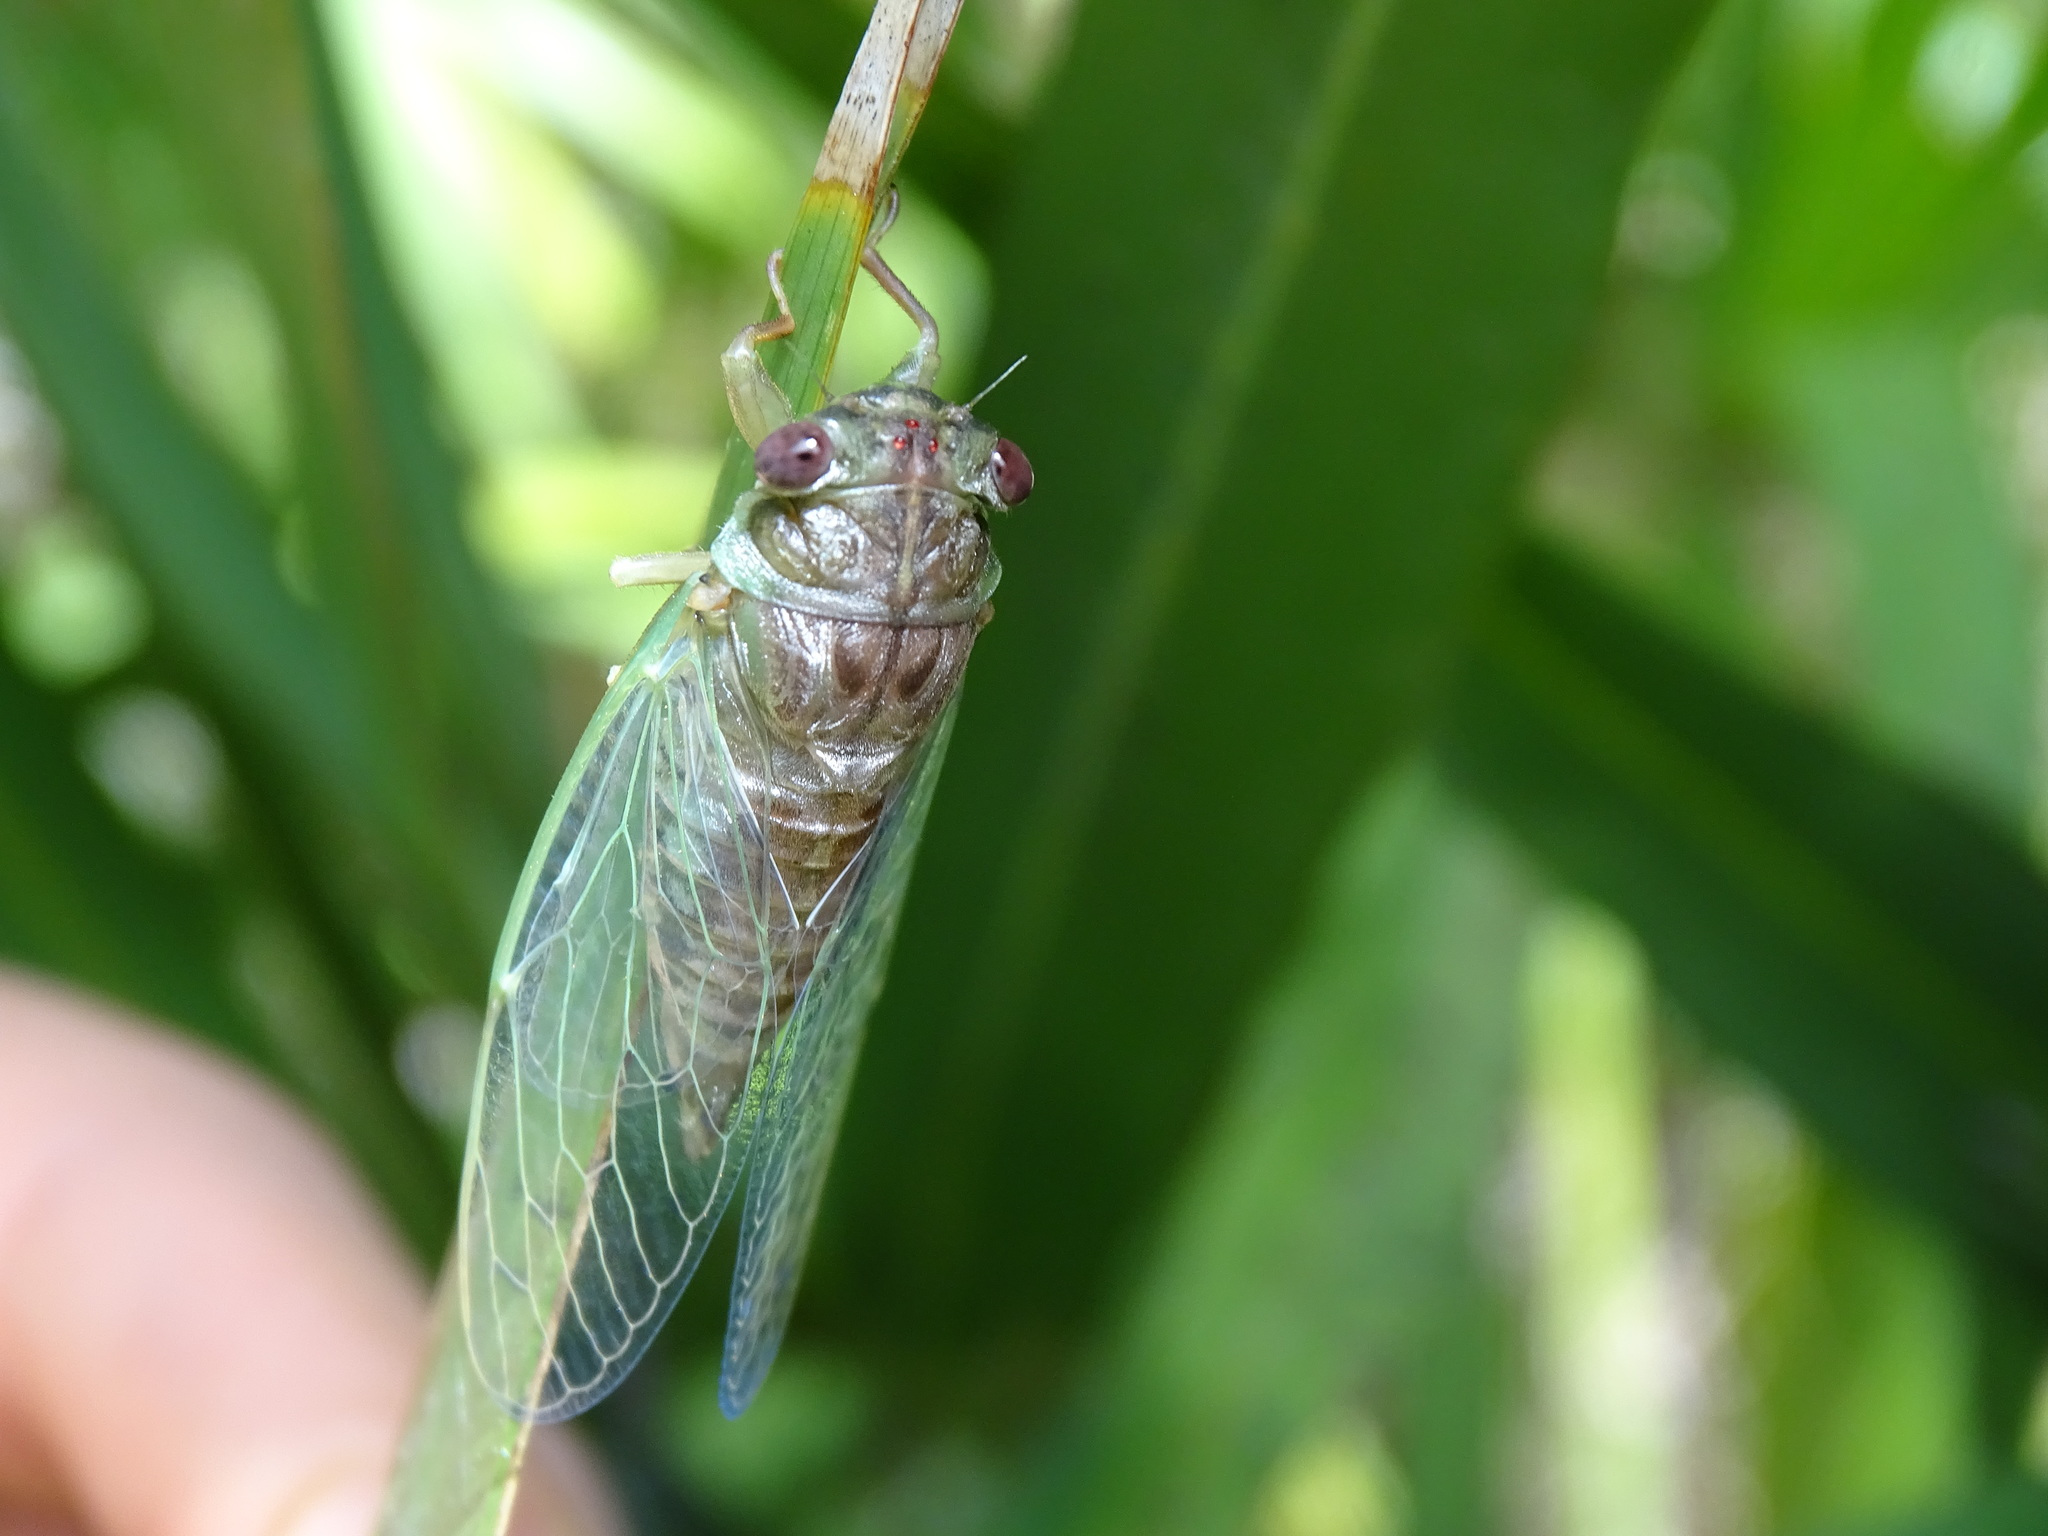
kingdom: Animalia
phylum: Arthropoda
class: Insecta
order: Hemiptera
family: Cicadidae
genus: Neocicada
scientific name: Neocicada hieroglyphica
